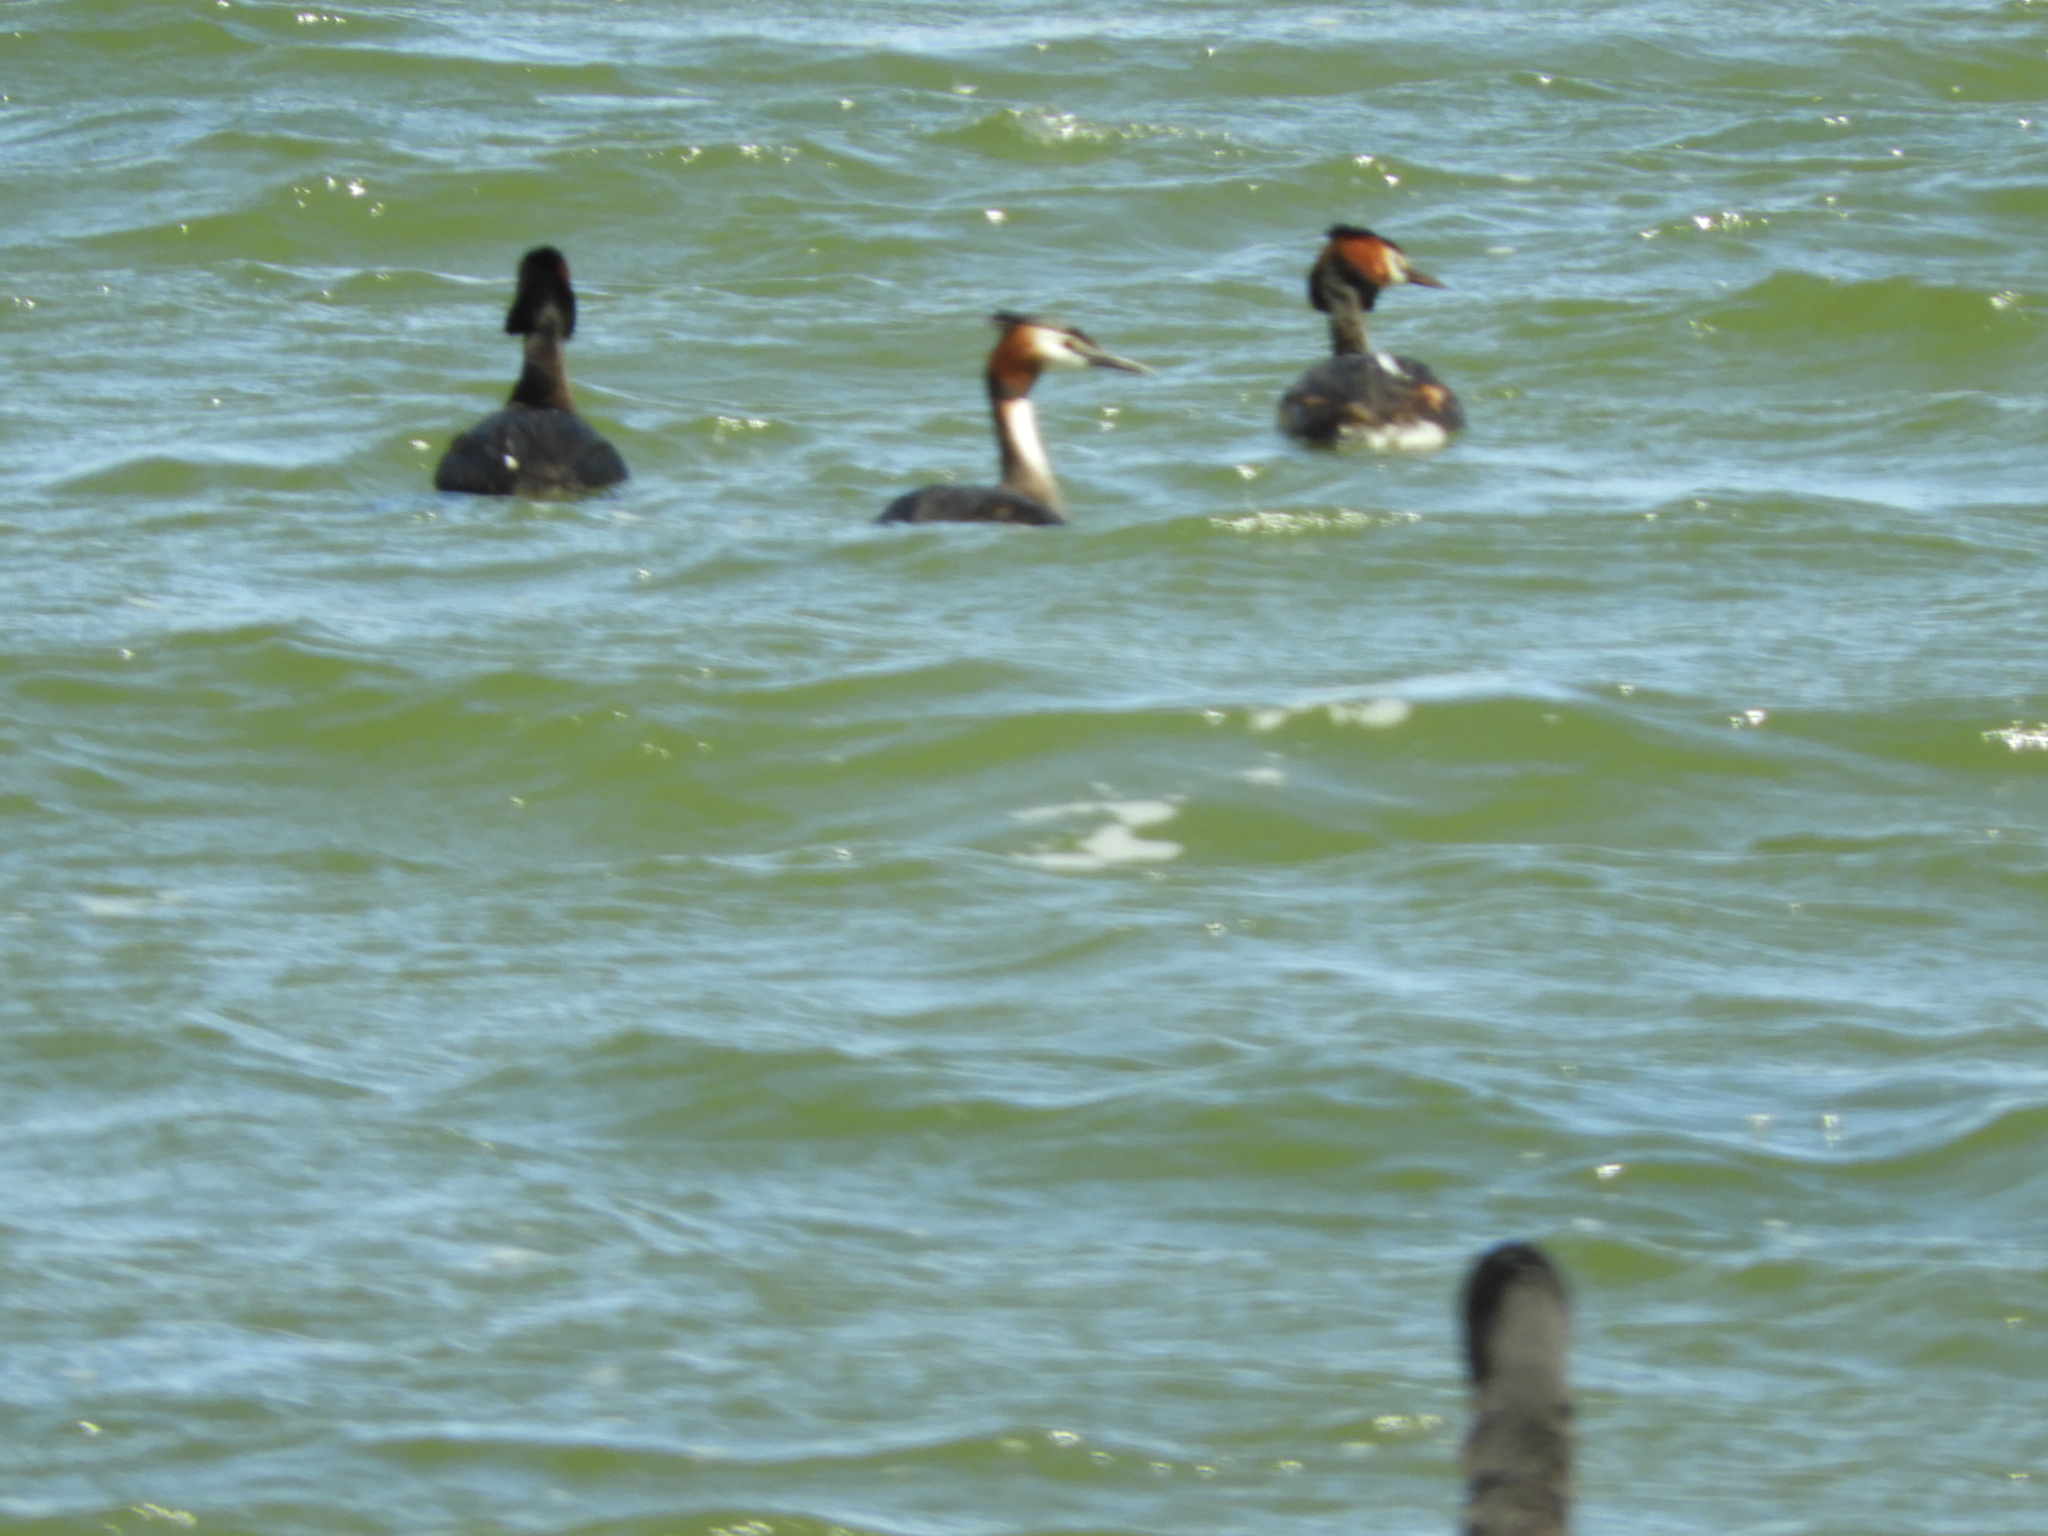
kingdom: Animalia
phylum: Chordata
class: Aves
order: Podicipediformes
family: Podicipedidae
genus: Podiceps
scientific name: Podiceps cristatus
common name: Great crested grebe
